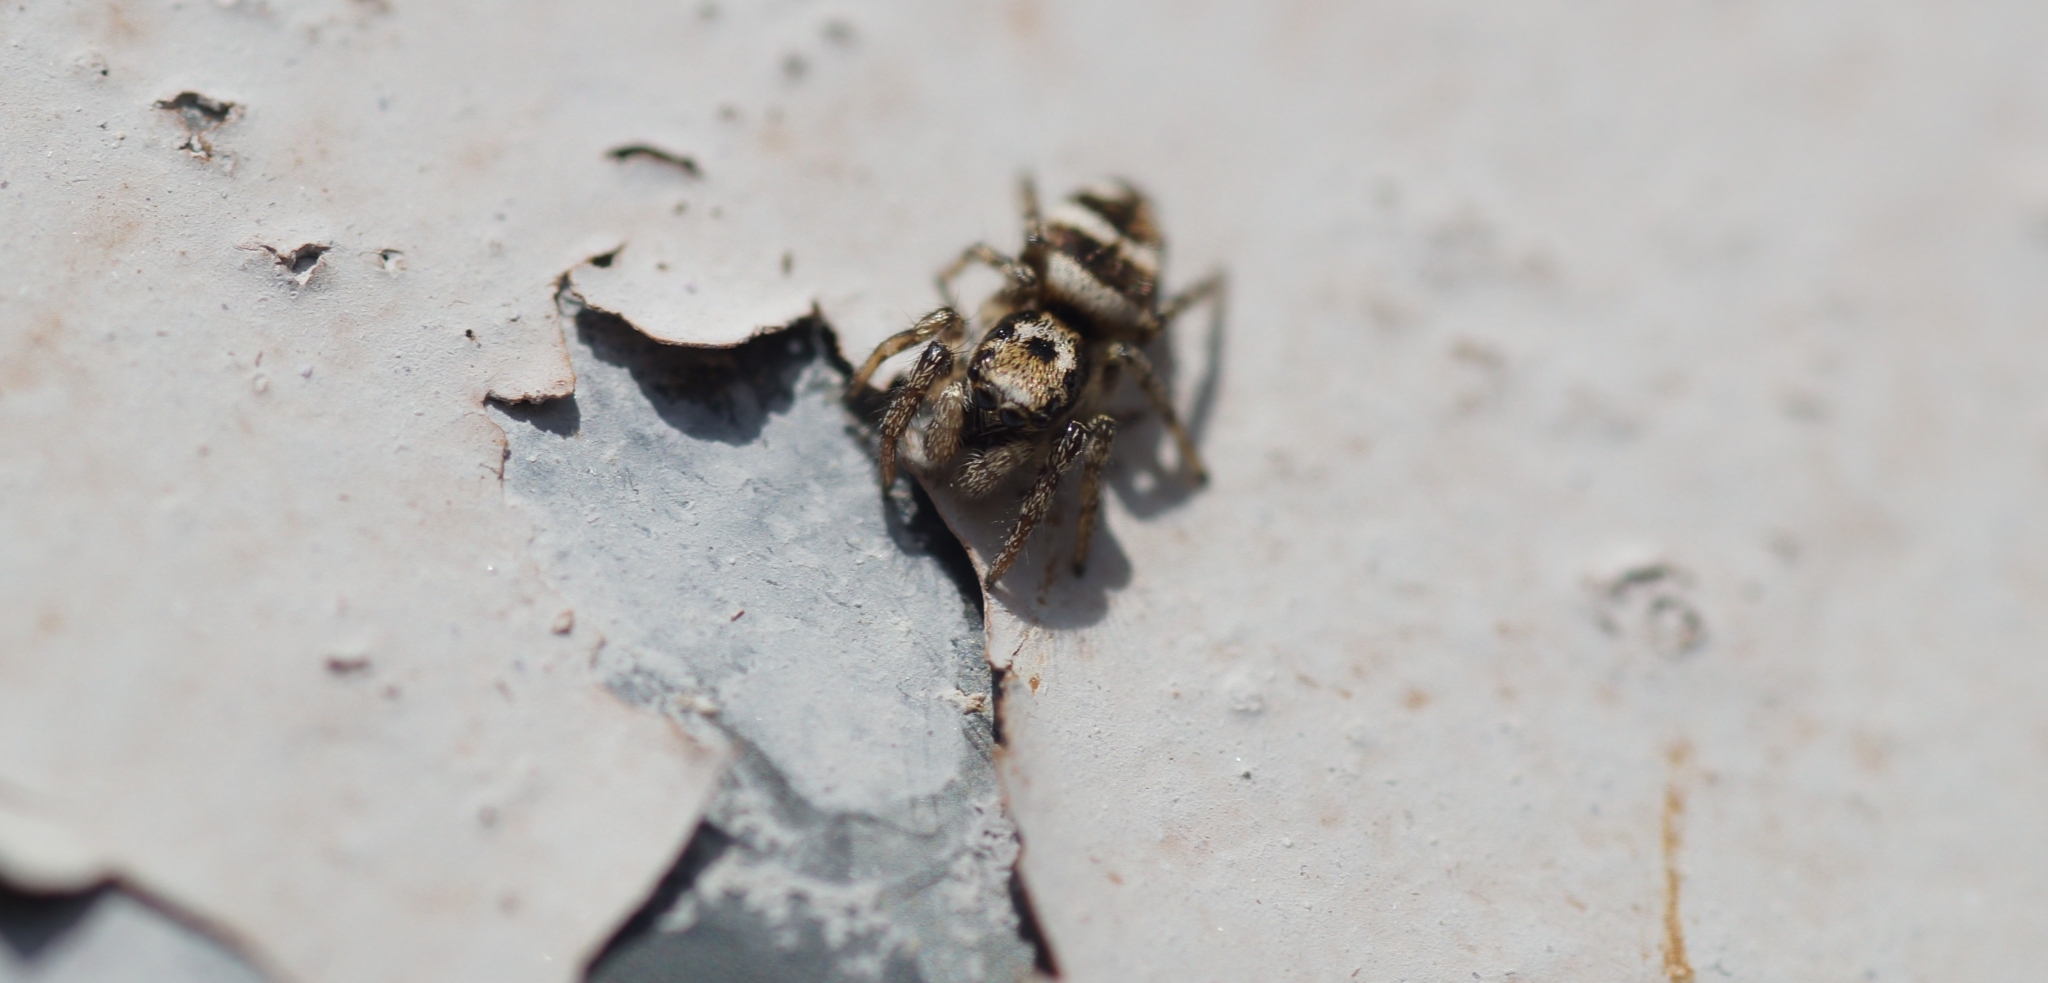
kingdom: Animalia
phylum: Arthropoda
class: Arachnida
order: Araneae
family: Salticidae
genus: Salticus
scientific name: Salticus scenicus
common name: Zebra jumper
